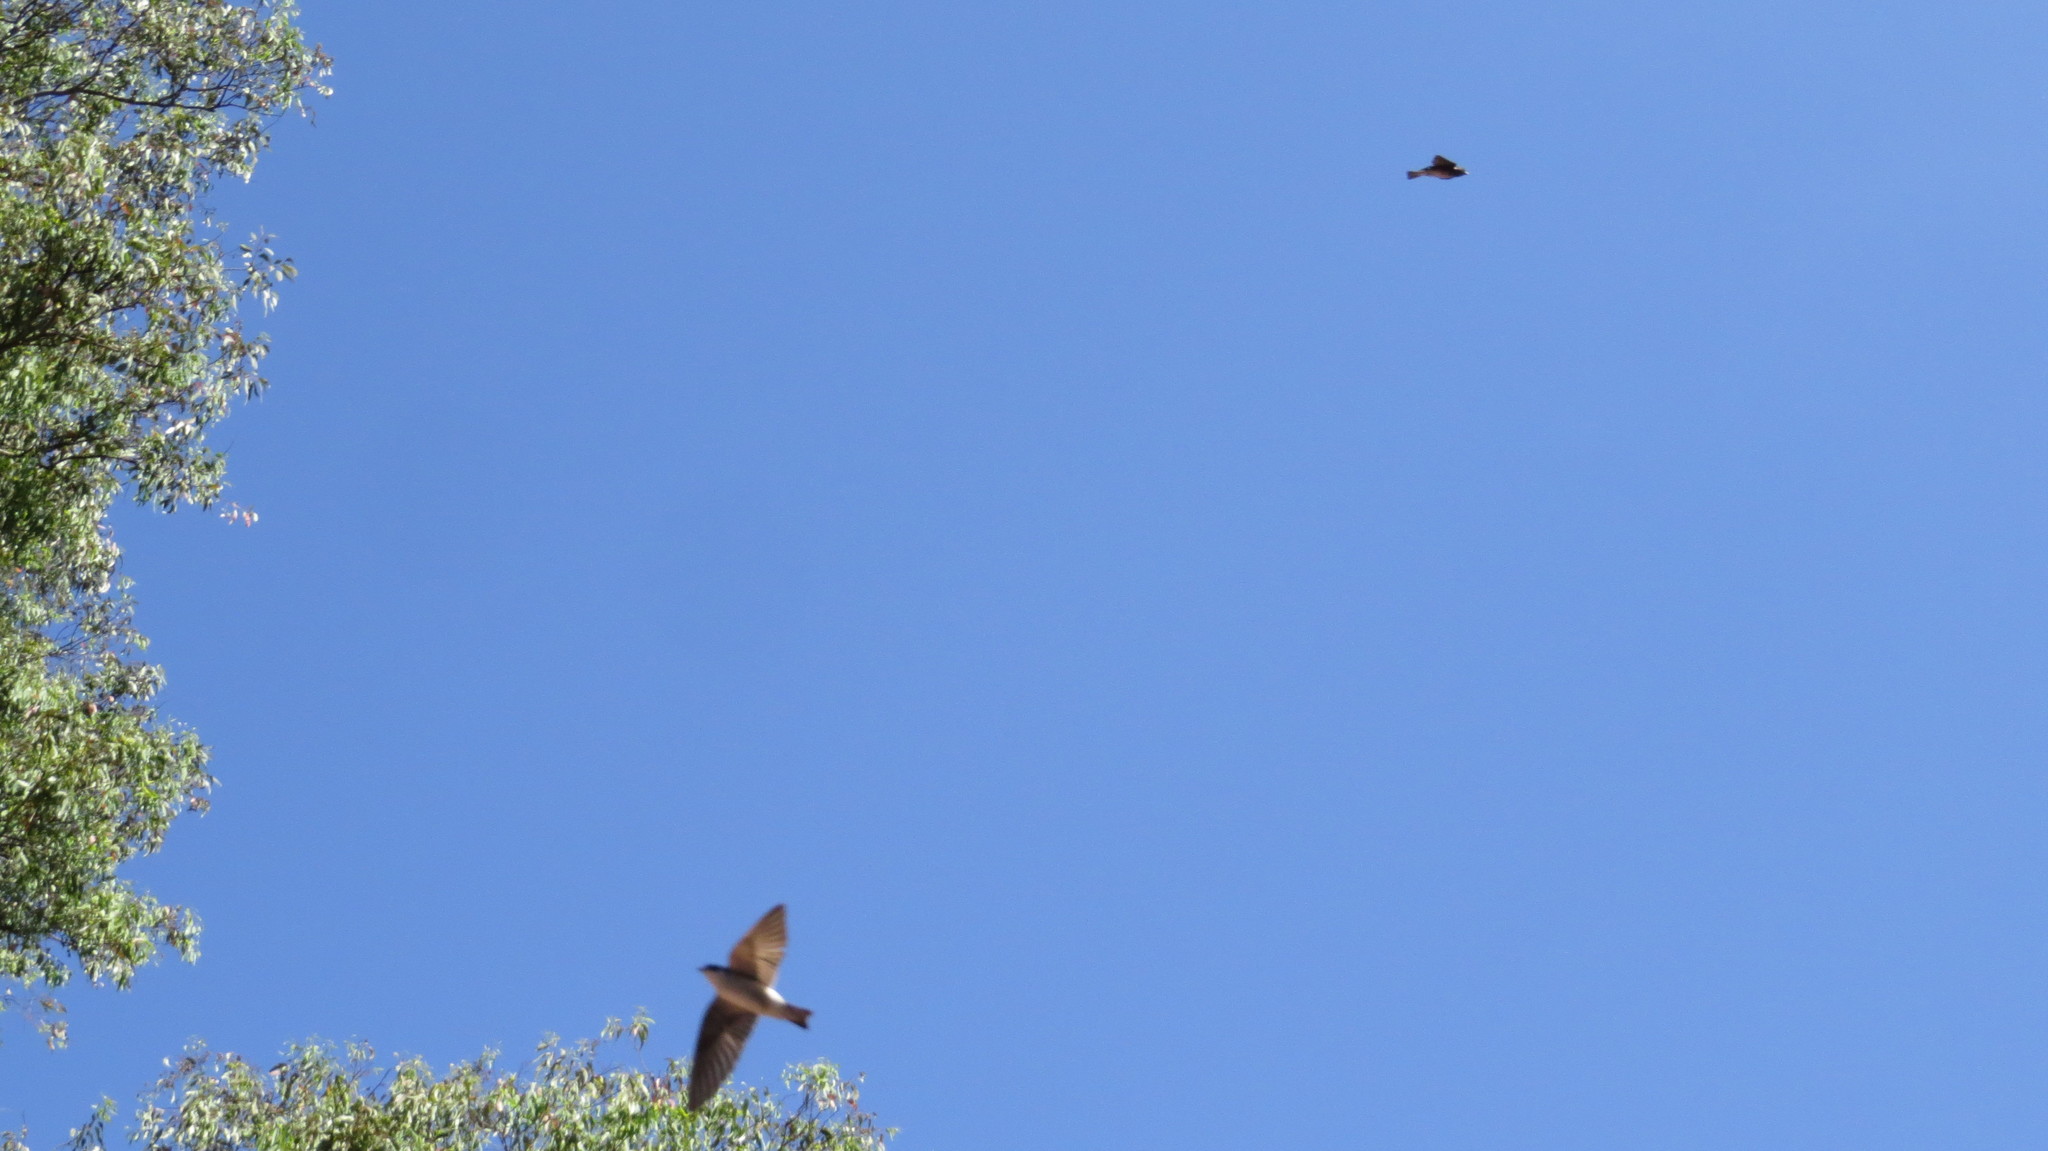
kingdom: Animalia
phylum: Chordata
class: Aves
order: Passeriformes
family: Hirundinidae
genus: Progne
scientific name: Progne chalybea
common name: Grey-breasted martin
